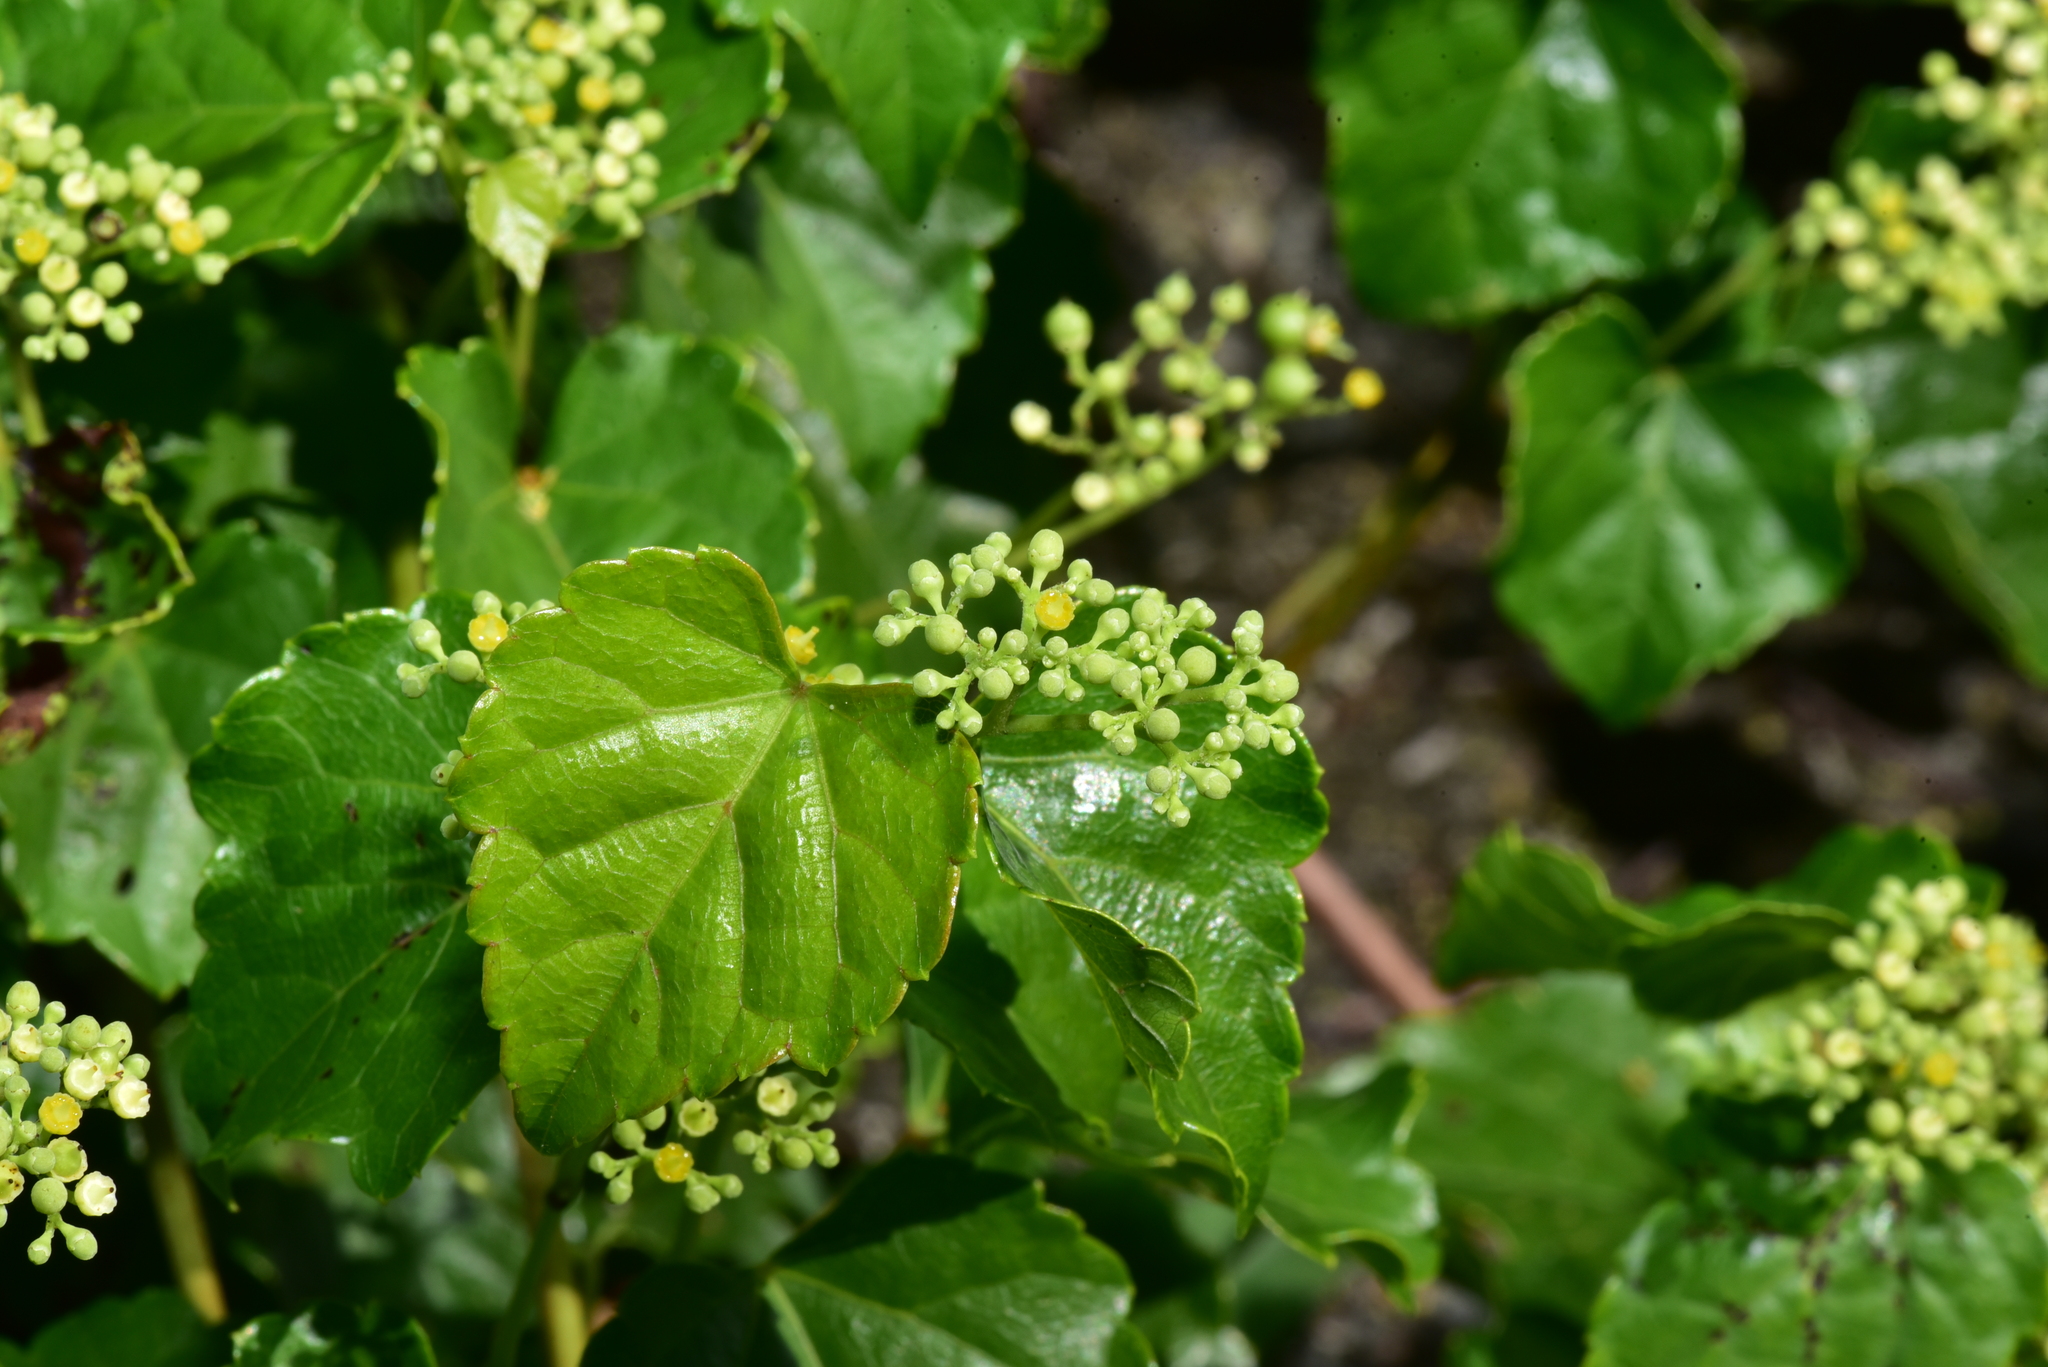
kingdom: Plantae
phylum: Tracheophyta
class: Magnoliopsida
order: Vitales
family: Vitaceae
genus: Ampelopsis
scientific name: Ampelopsis glandulosa
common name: Amur peppervine
